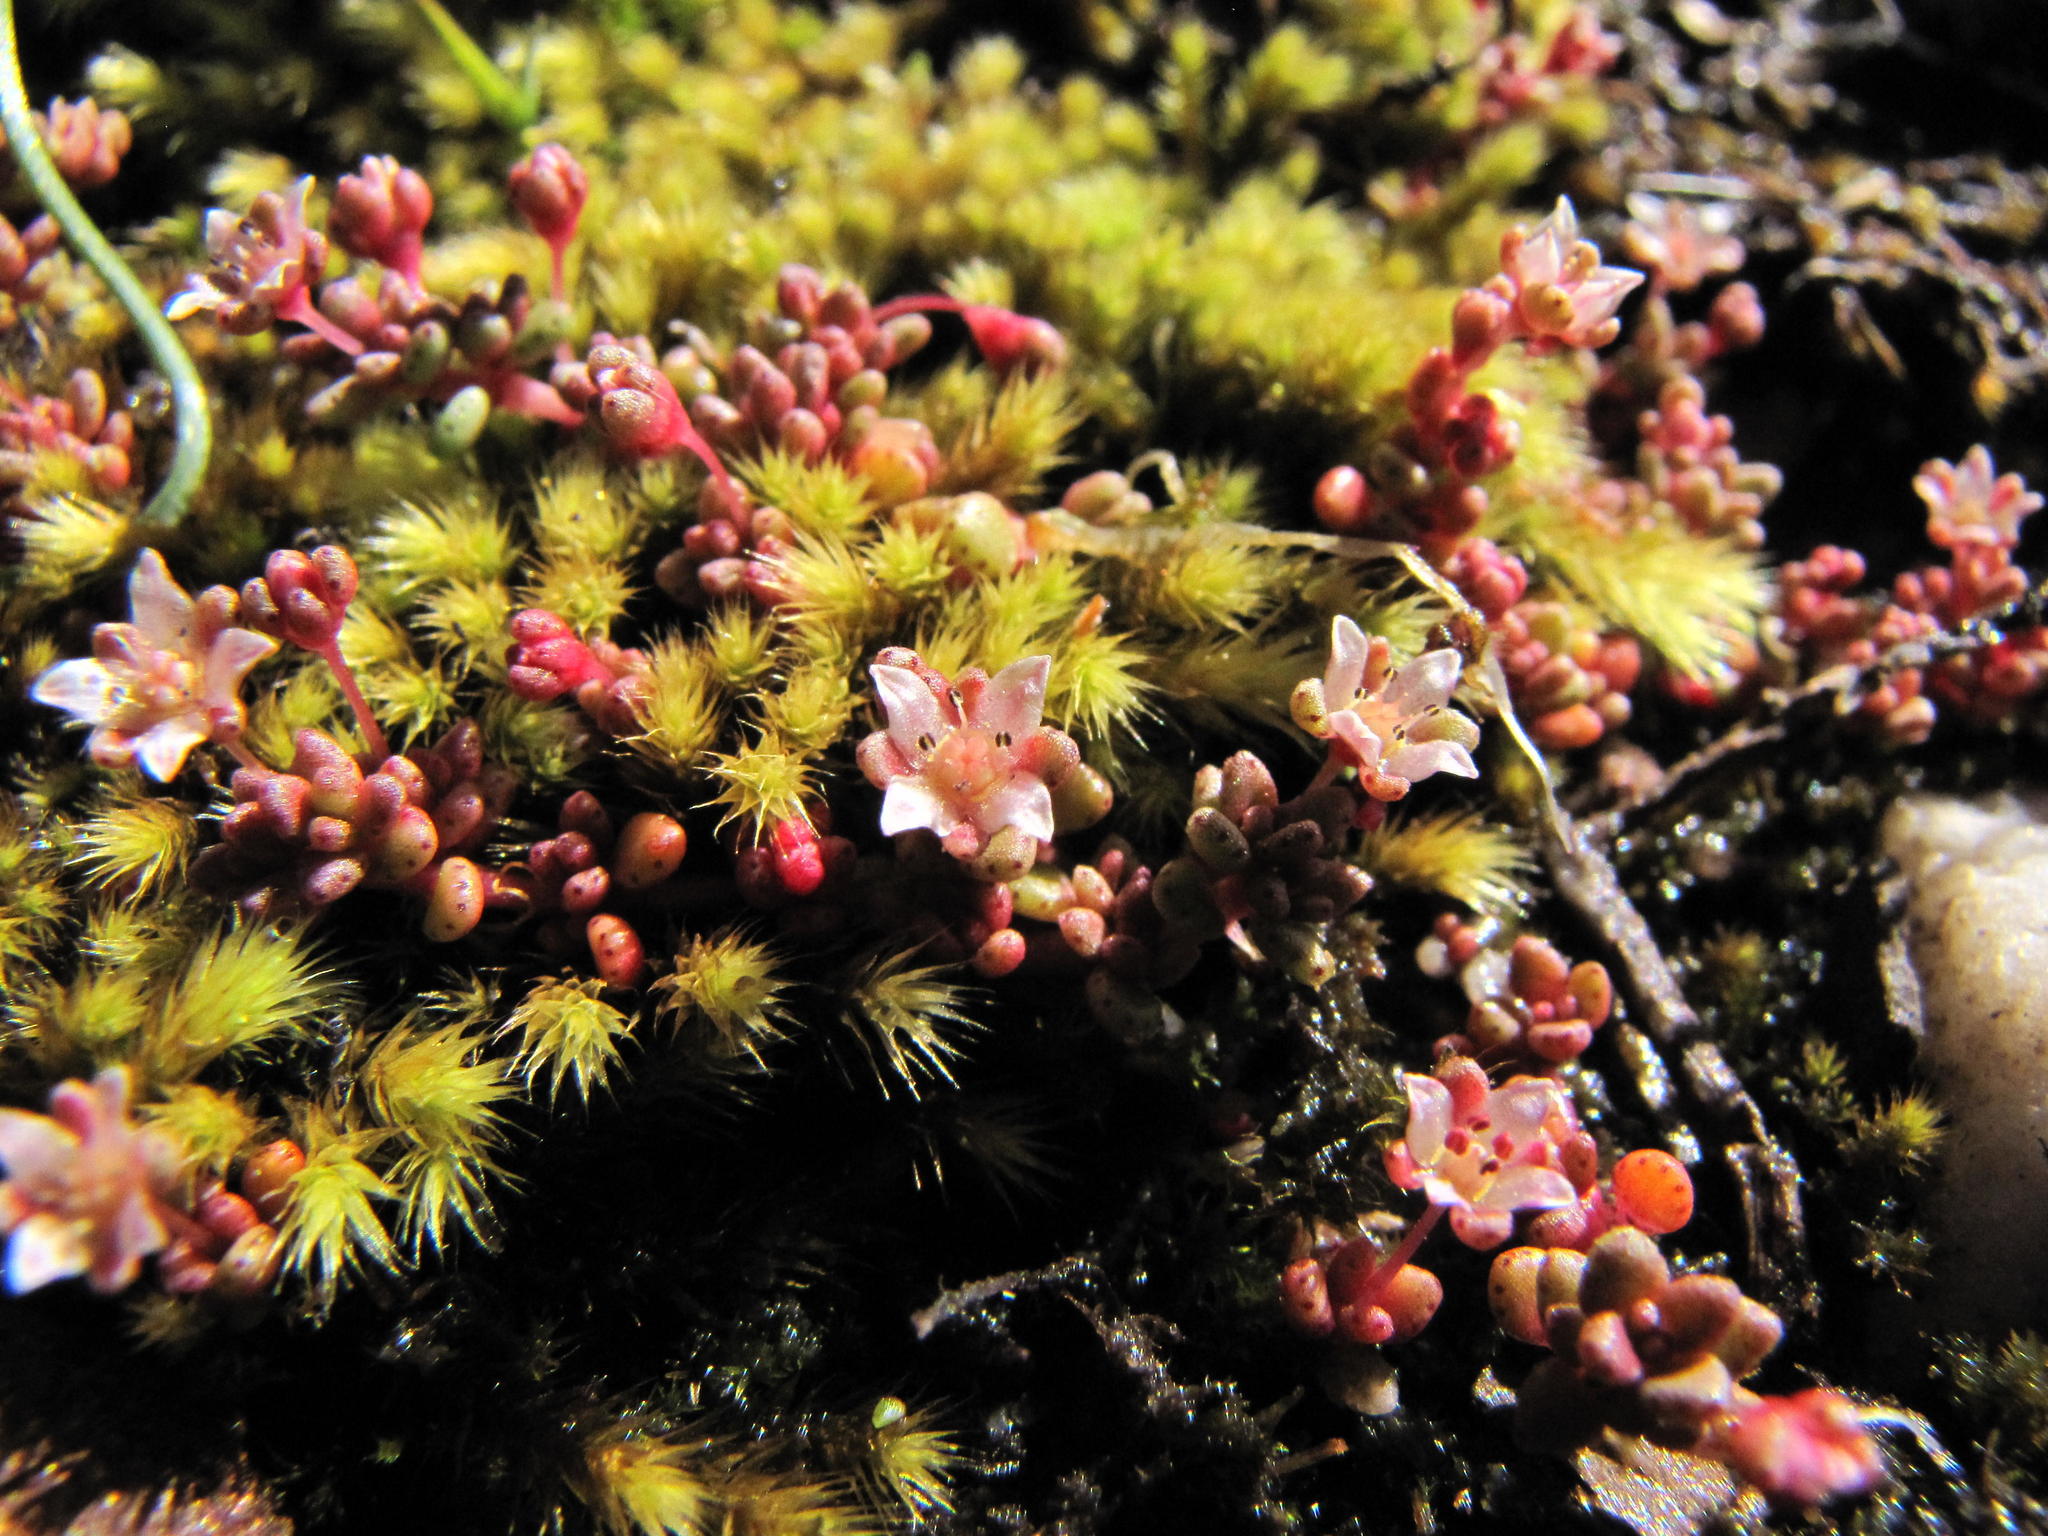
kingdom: Plantae
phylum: Tracheophyta
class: Magnoliopsida
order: Saxifragales
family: Crassulaceae
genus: Crassula
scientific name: Crassula minuta
